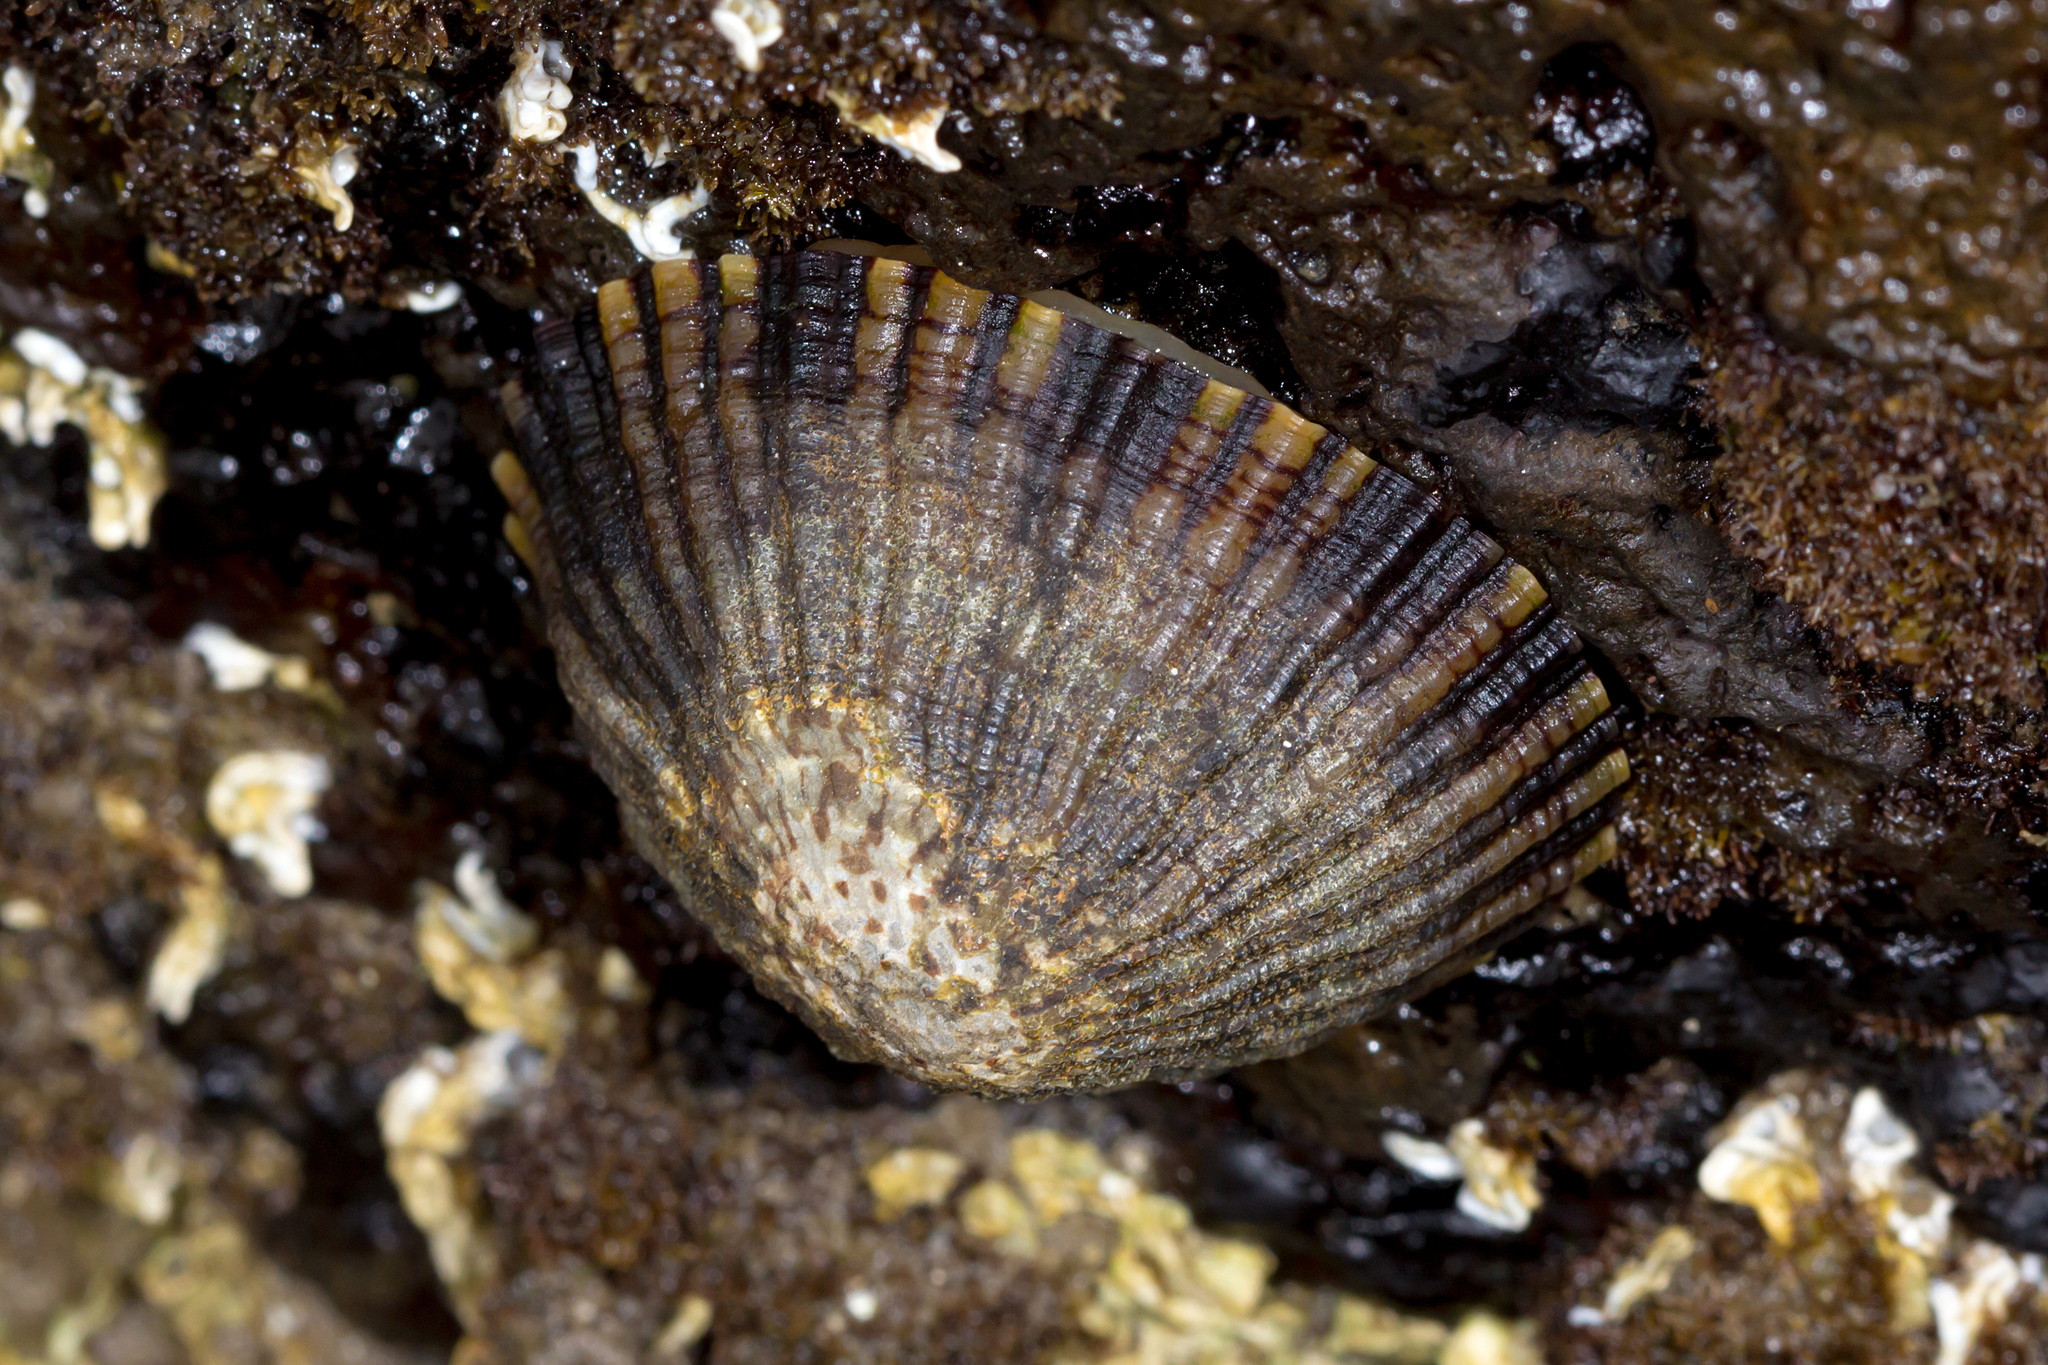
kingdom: Animalia
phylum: Mollusca
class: Gastropoda
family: Nacellidae
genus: Cellana
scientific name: Cellana tramoserica
